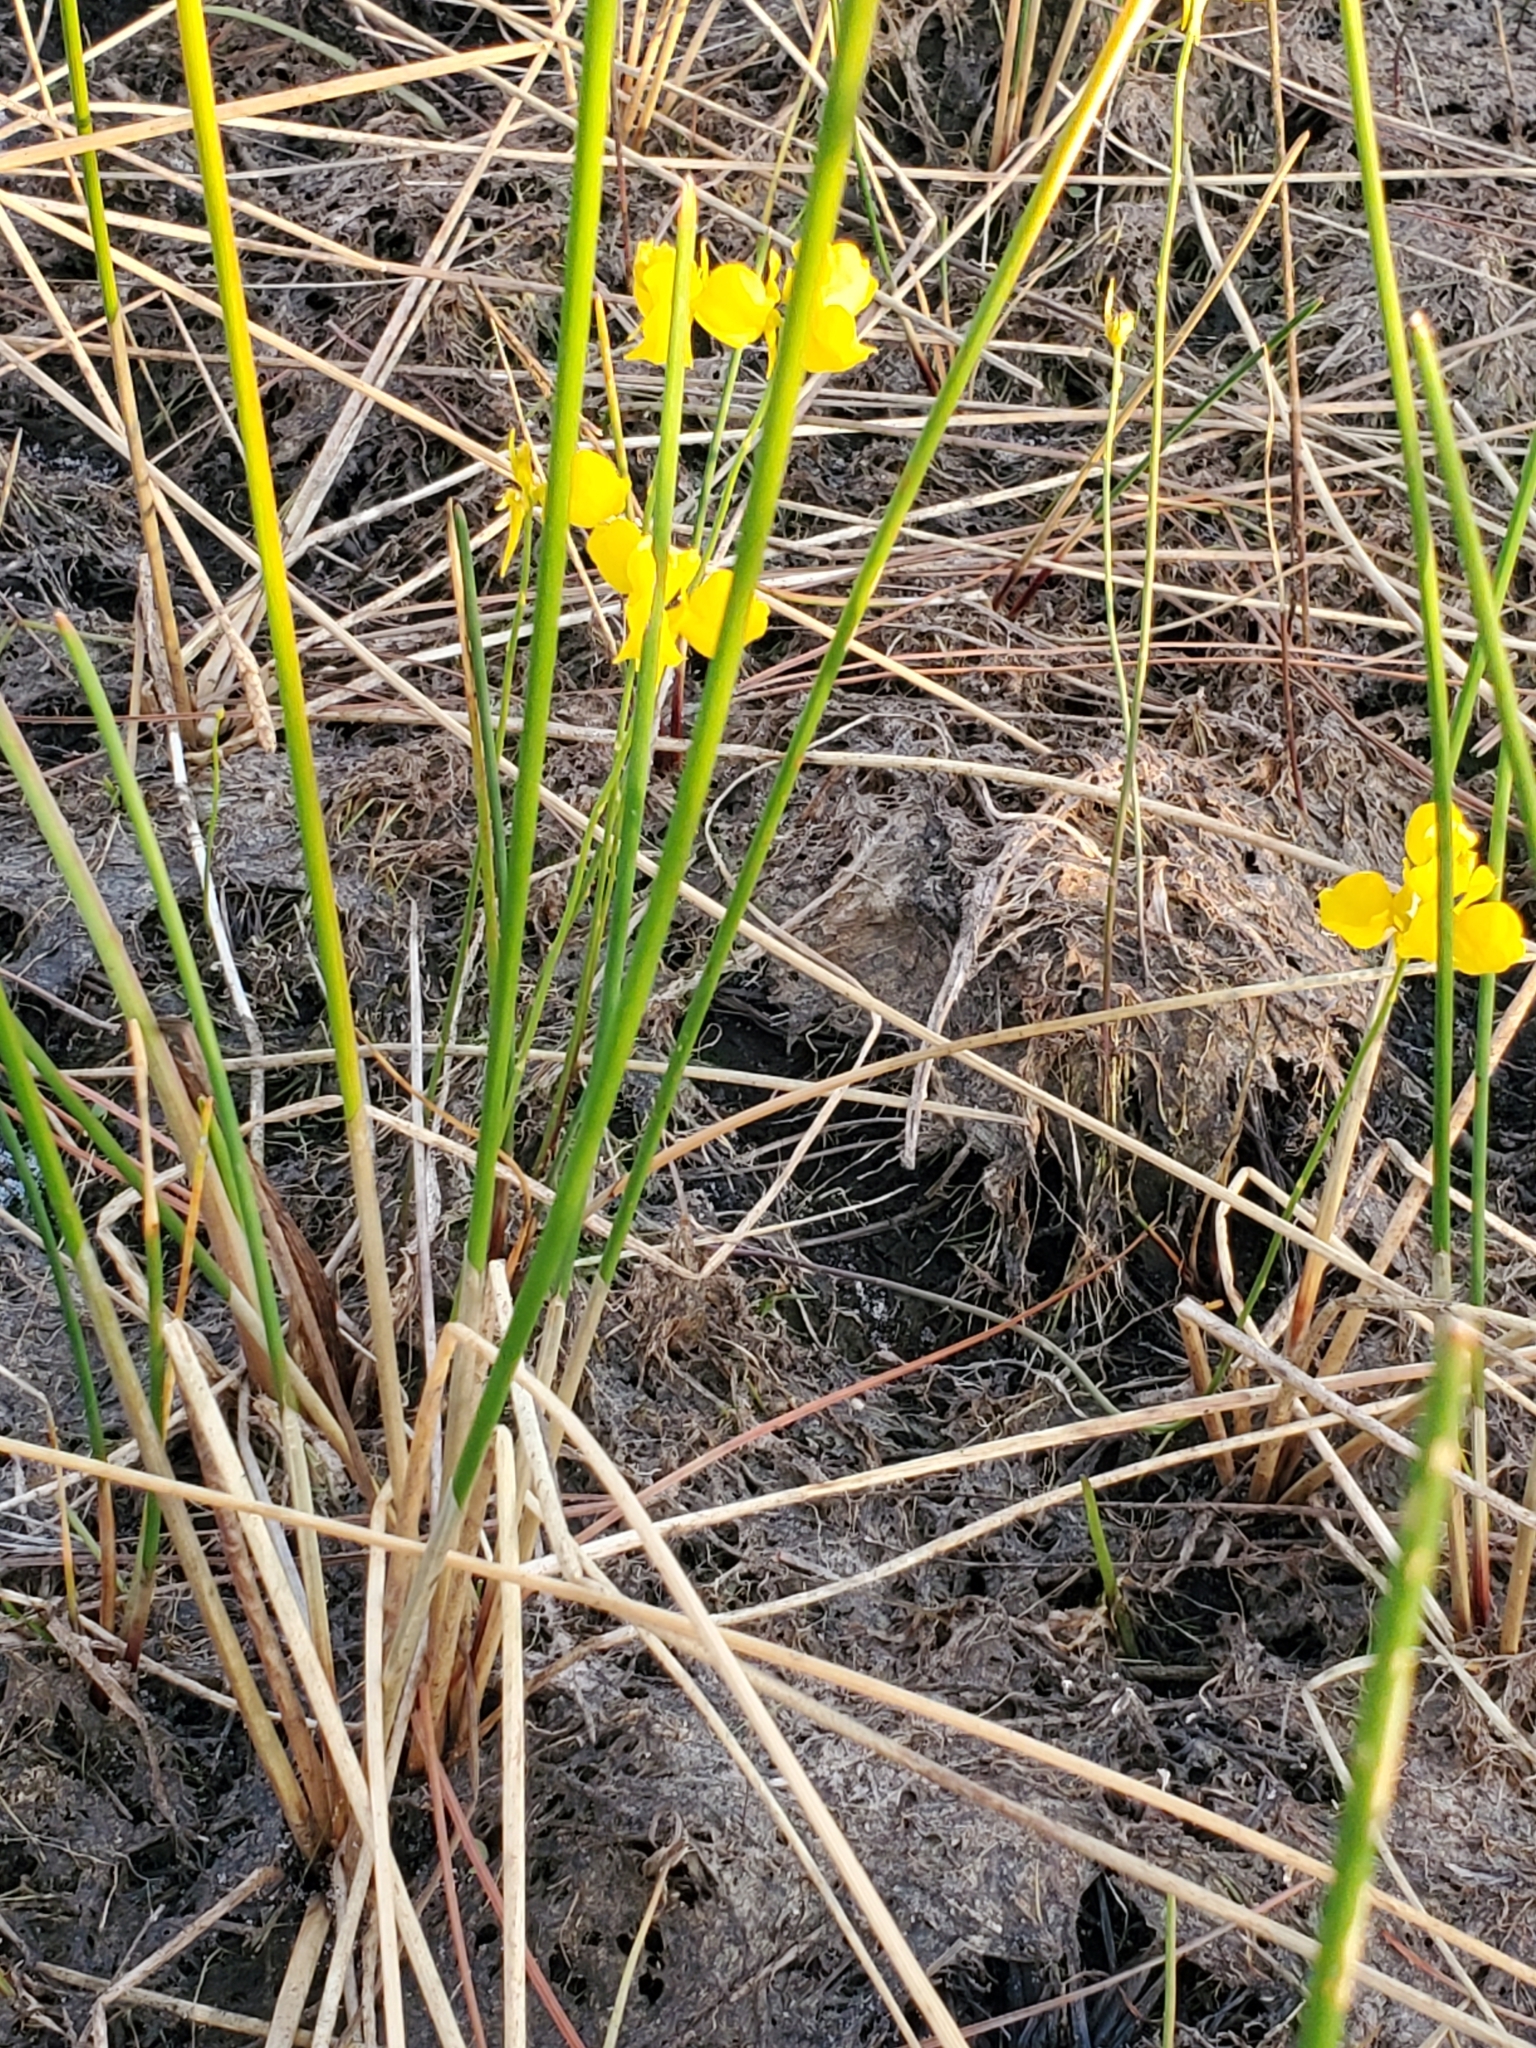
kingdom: Plantae
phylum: Tracheophyta
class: Magnoliopsida
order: Lamiales
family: Lentibulariaceae
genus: Utricularia
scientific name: Utricularia cornuta
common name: Horned bladderwort
